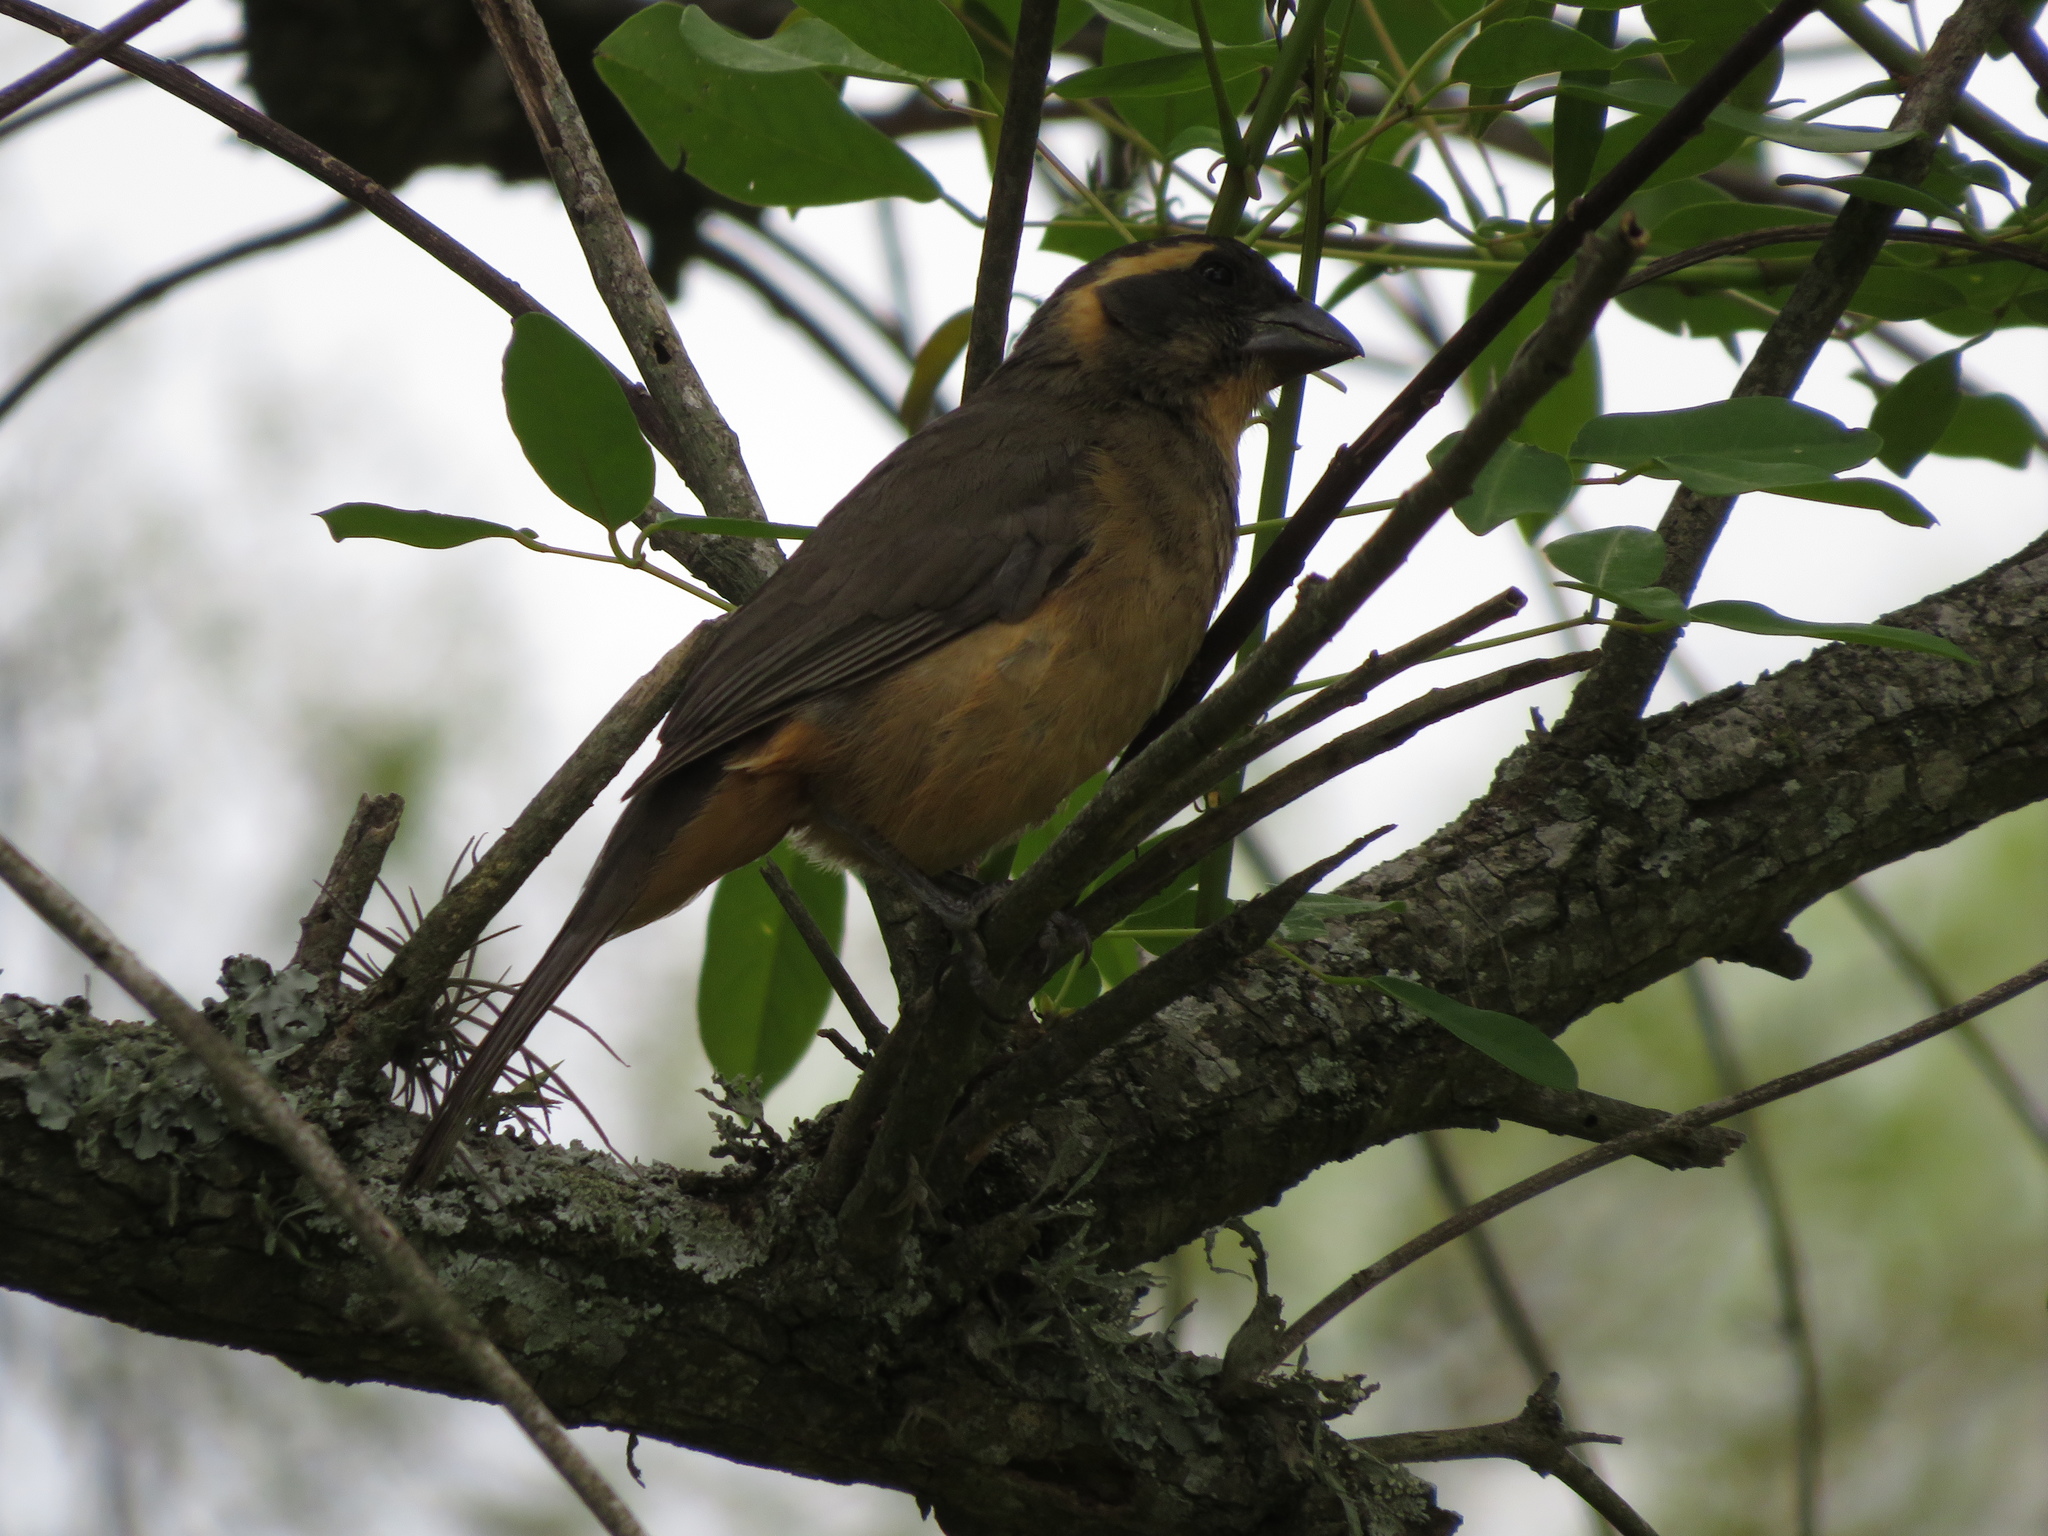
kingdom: Animalia
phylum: Chordata
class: Aves
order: Passeriformes
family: Thraupidae
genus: Saltator
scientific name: Saltator aurantiirostris
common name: Golden-billed saltator
